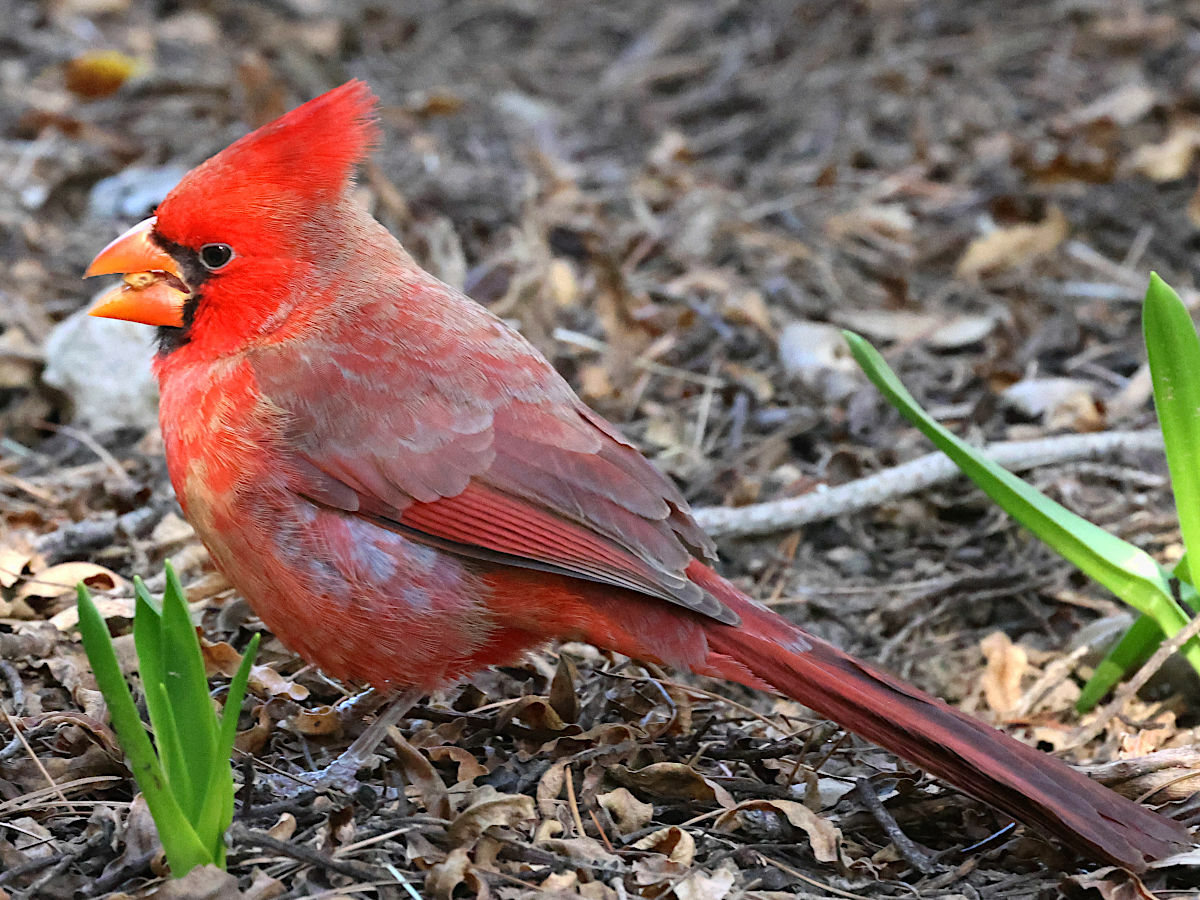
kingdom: Animalia
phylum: Chordata
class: Aves
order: Passeriformes
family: Cardinalidae
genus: Cardinalis
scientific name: Cardinalis cardinalis
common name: Northern cardinal
